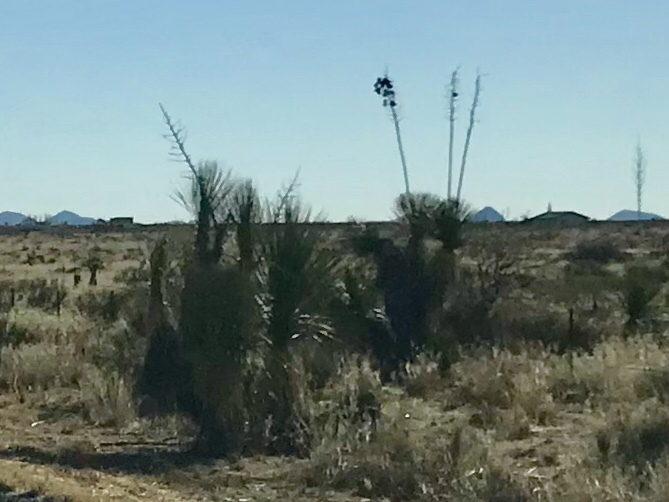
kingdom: Plantae
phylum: Tracheophyta
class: Liliopsida
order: Asparagales
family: Asparagaceae
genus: Yucca
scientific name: Yucca elata
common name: Palmella
